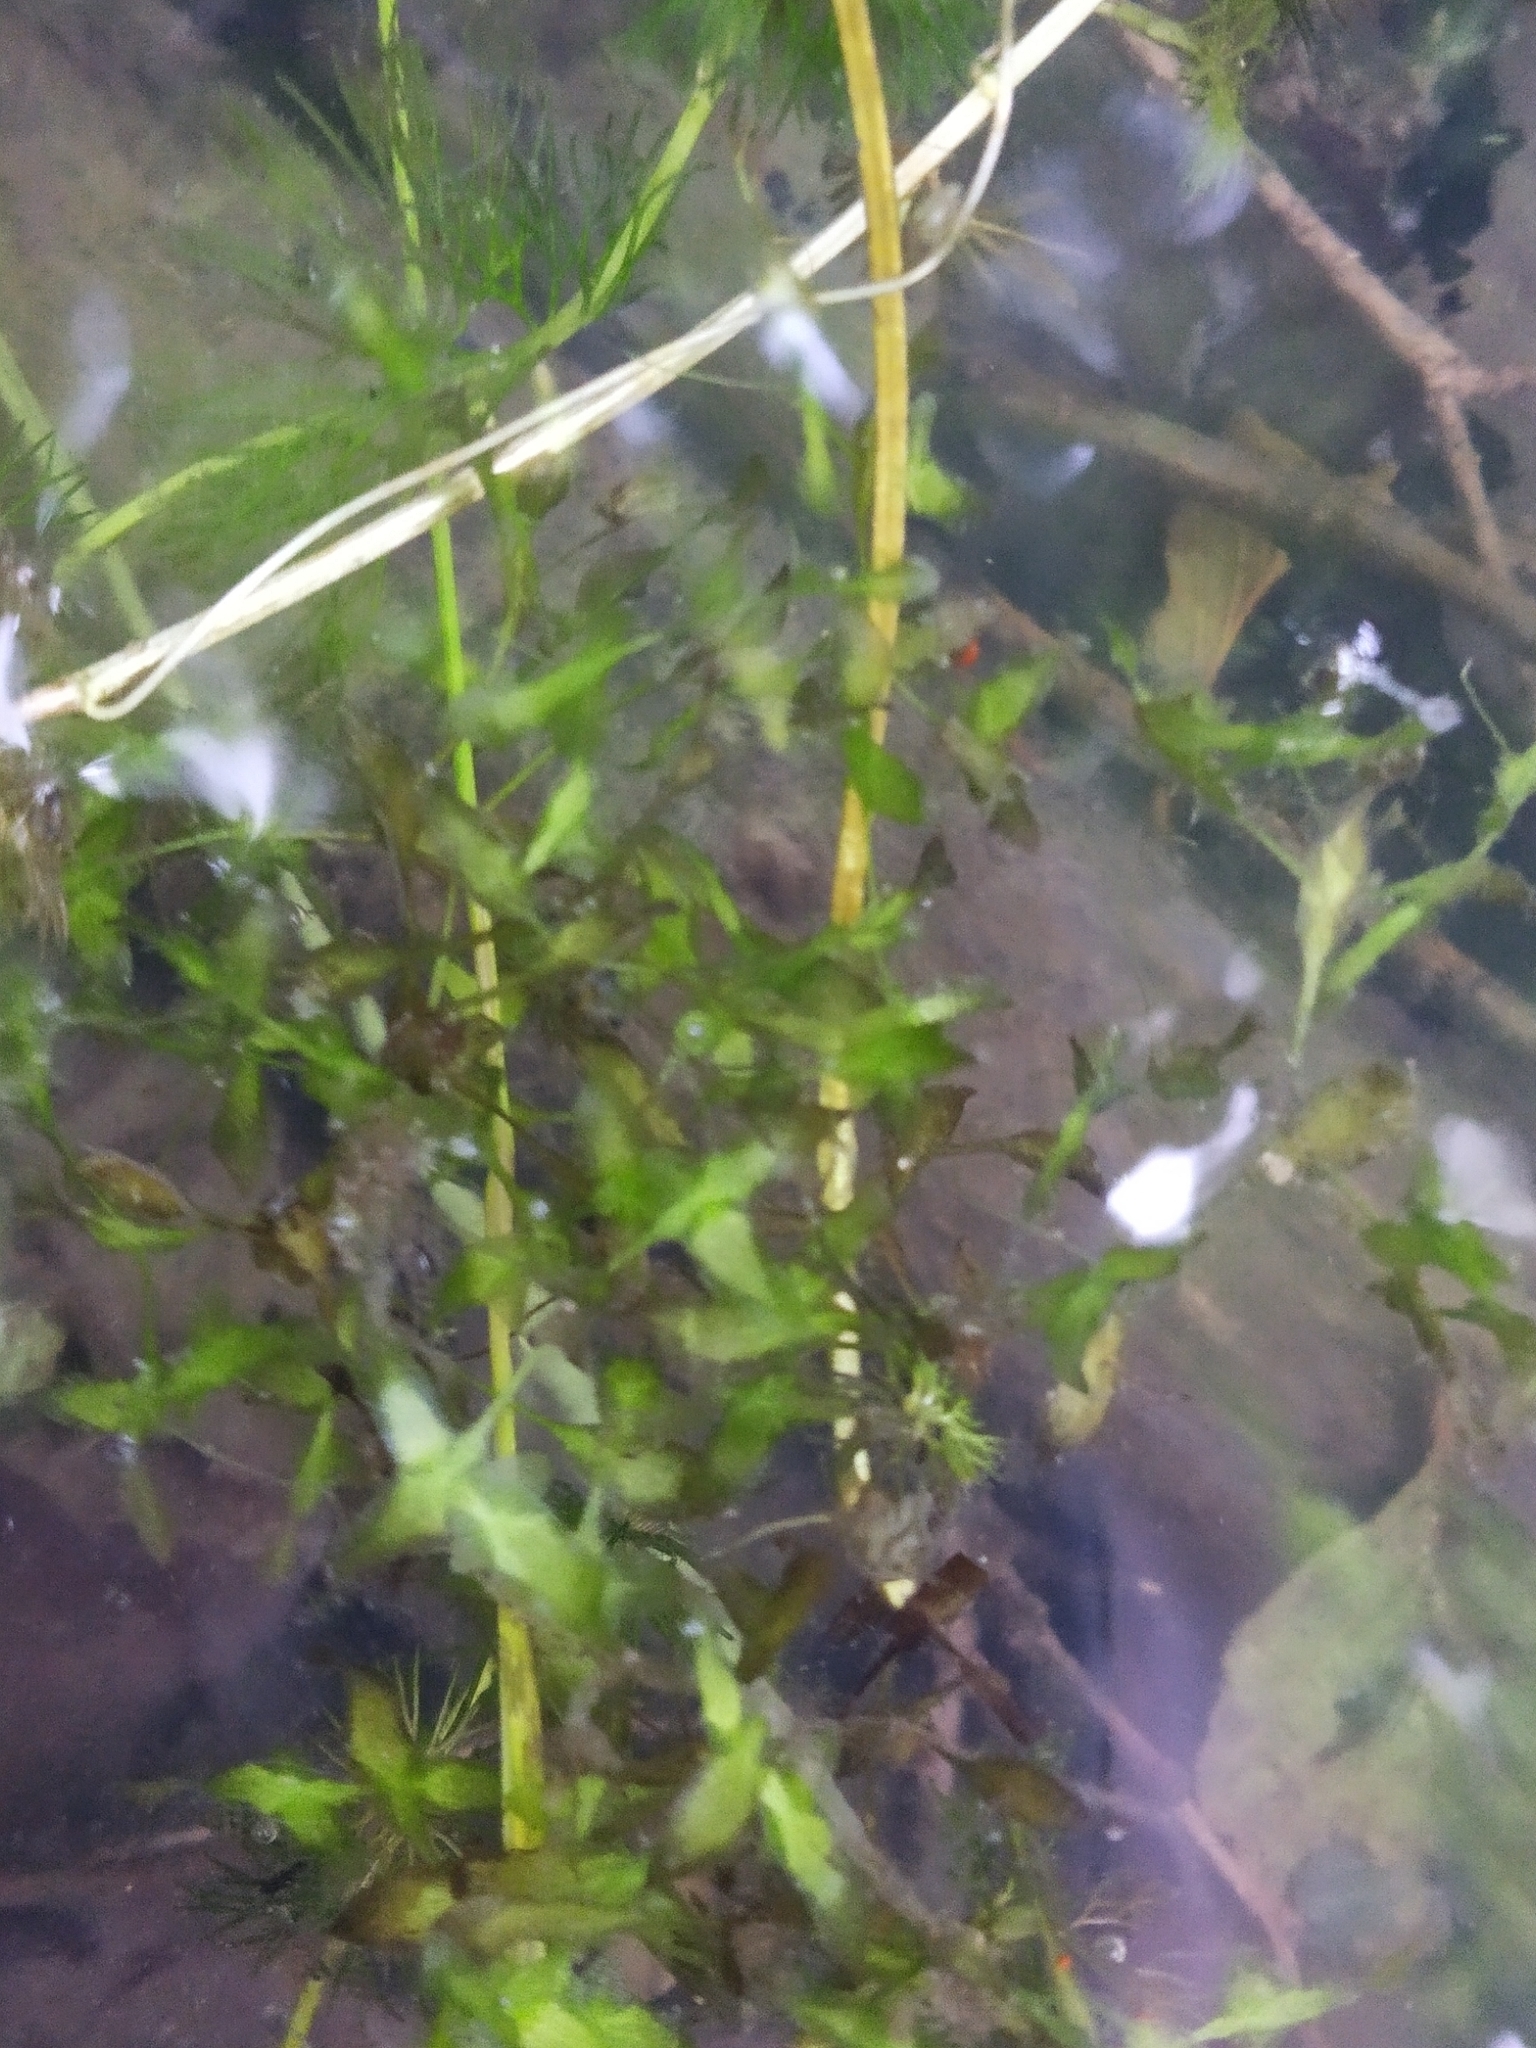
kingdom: Plantae
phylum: Tracheophyta
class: Liliopsida
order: Alismatales
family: Araceae
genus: Lemna
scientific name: Lemna trisulca
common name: Ivy-leaved duckweed
